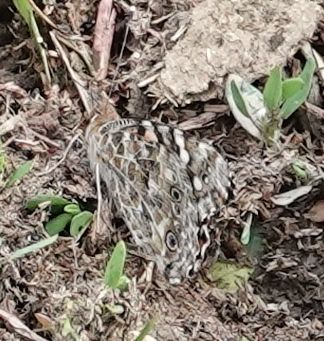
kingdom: Animalia
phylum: Arthropoda
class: Insecta
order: Lepidoptera
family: Nymphalidae
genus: Vanessa
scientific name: Vanessa cardui
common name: Painted lady
